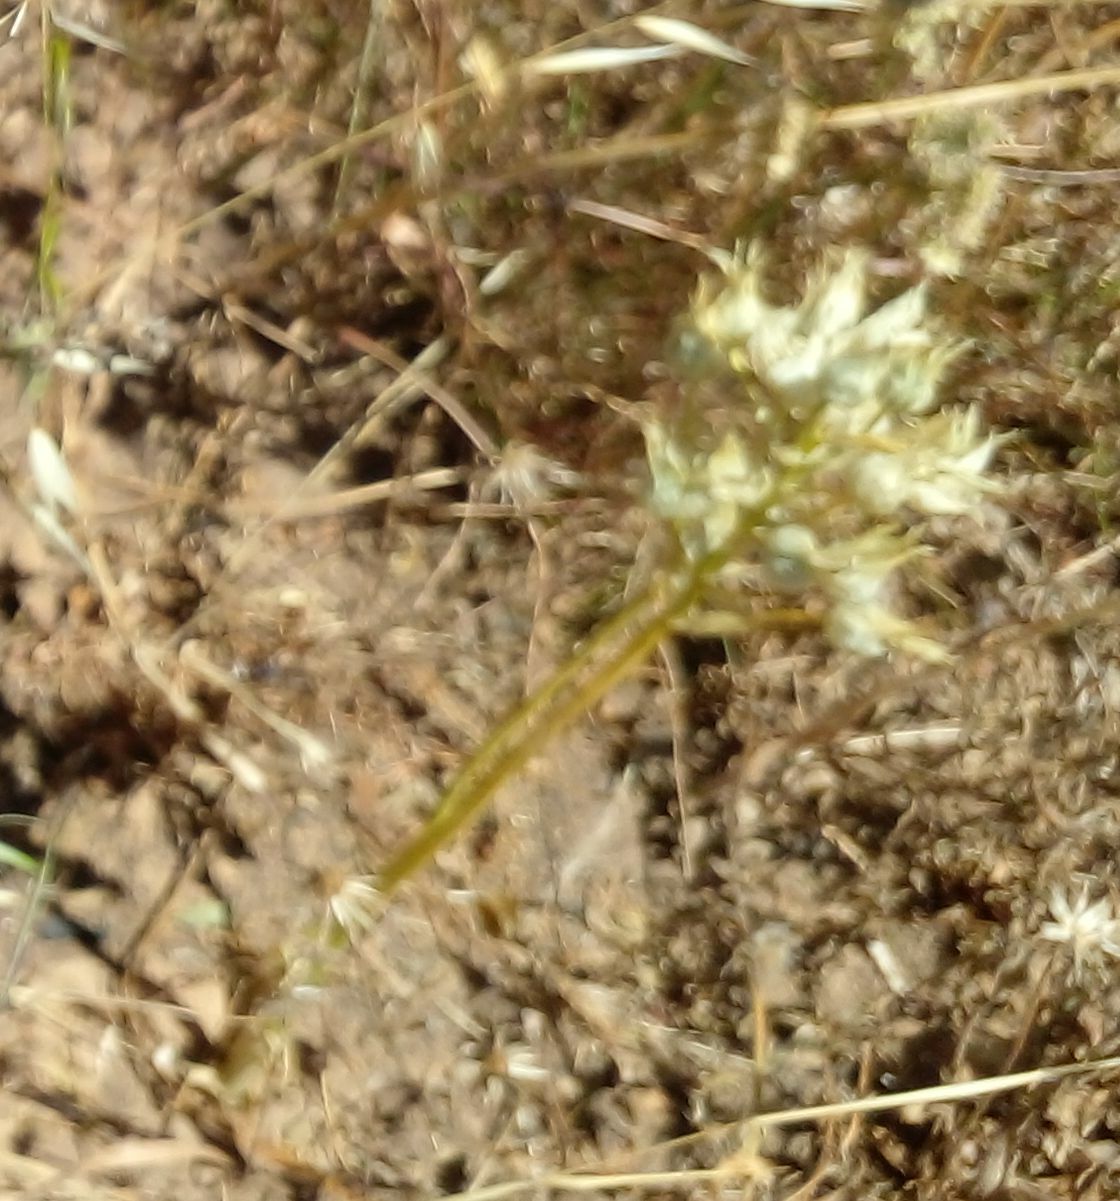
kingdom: Plantae
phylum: Tracheophyta
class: Liliopsida
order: Asparagales
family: Asparagaceae
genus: Ornithogalum
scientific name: Ornithogalum thyrsoides
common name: Chincherinchee
